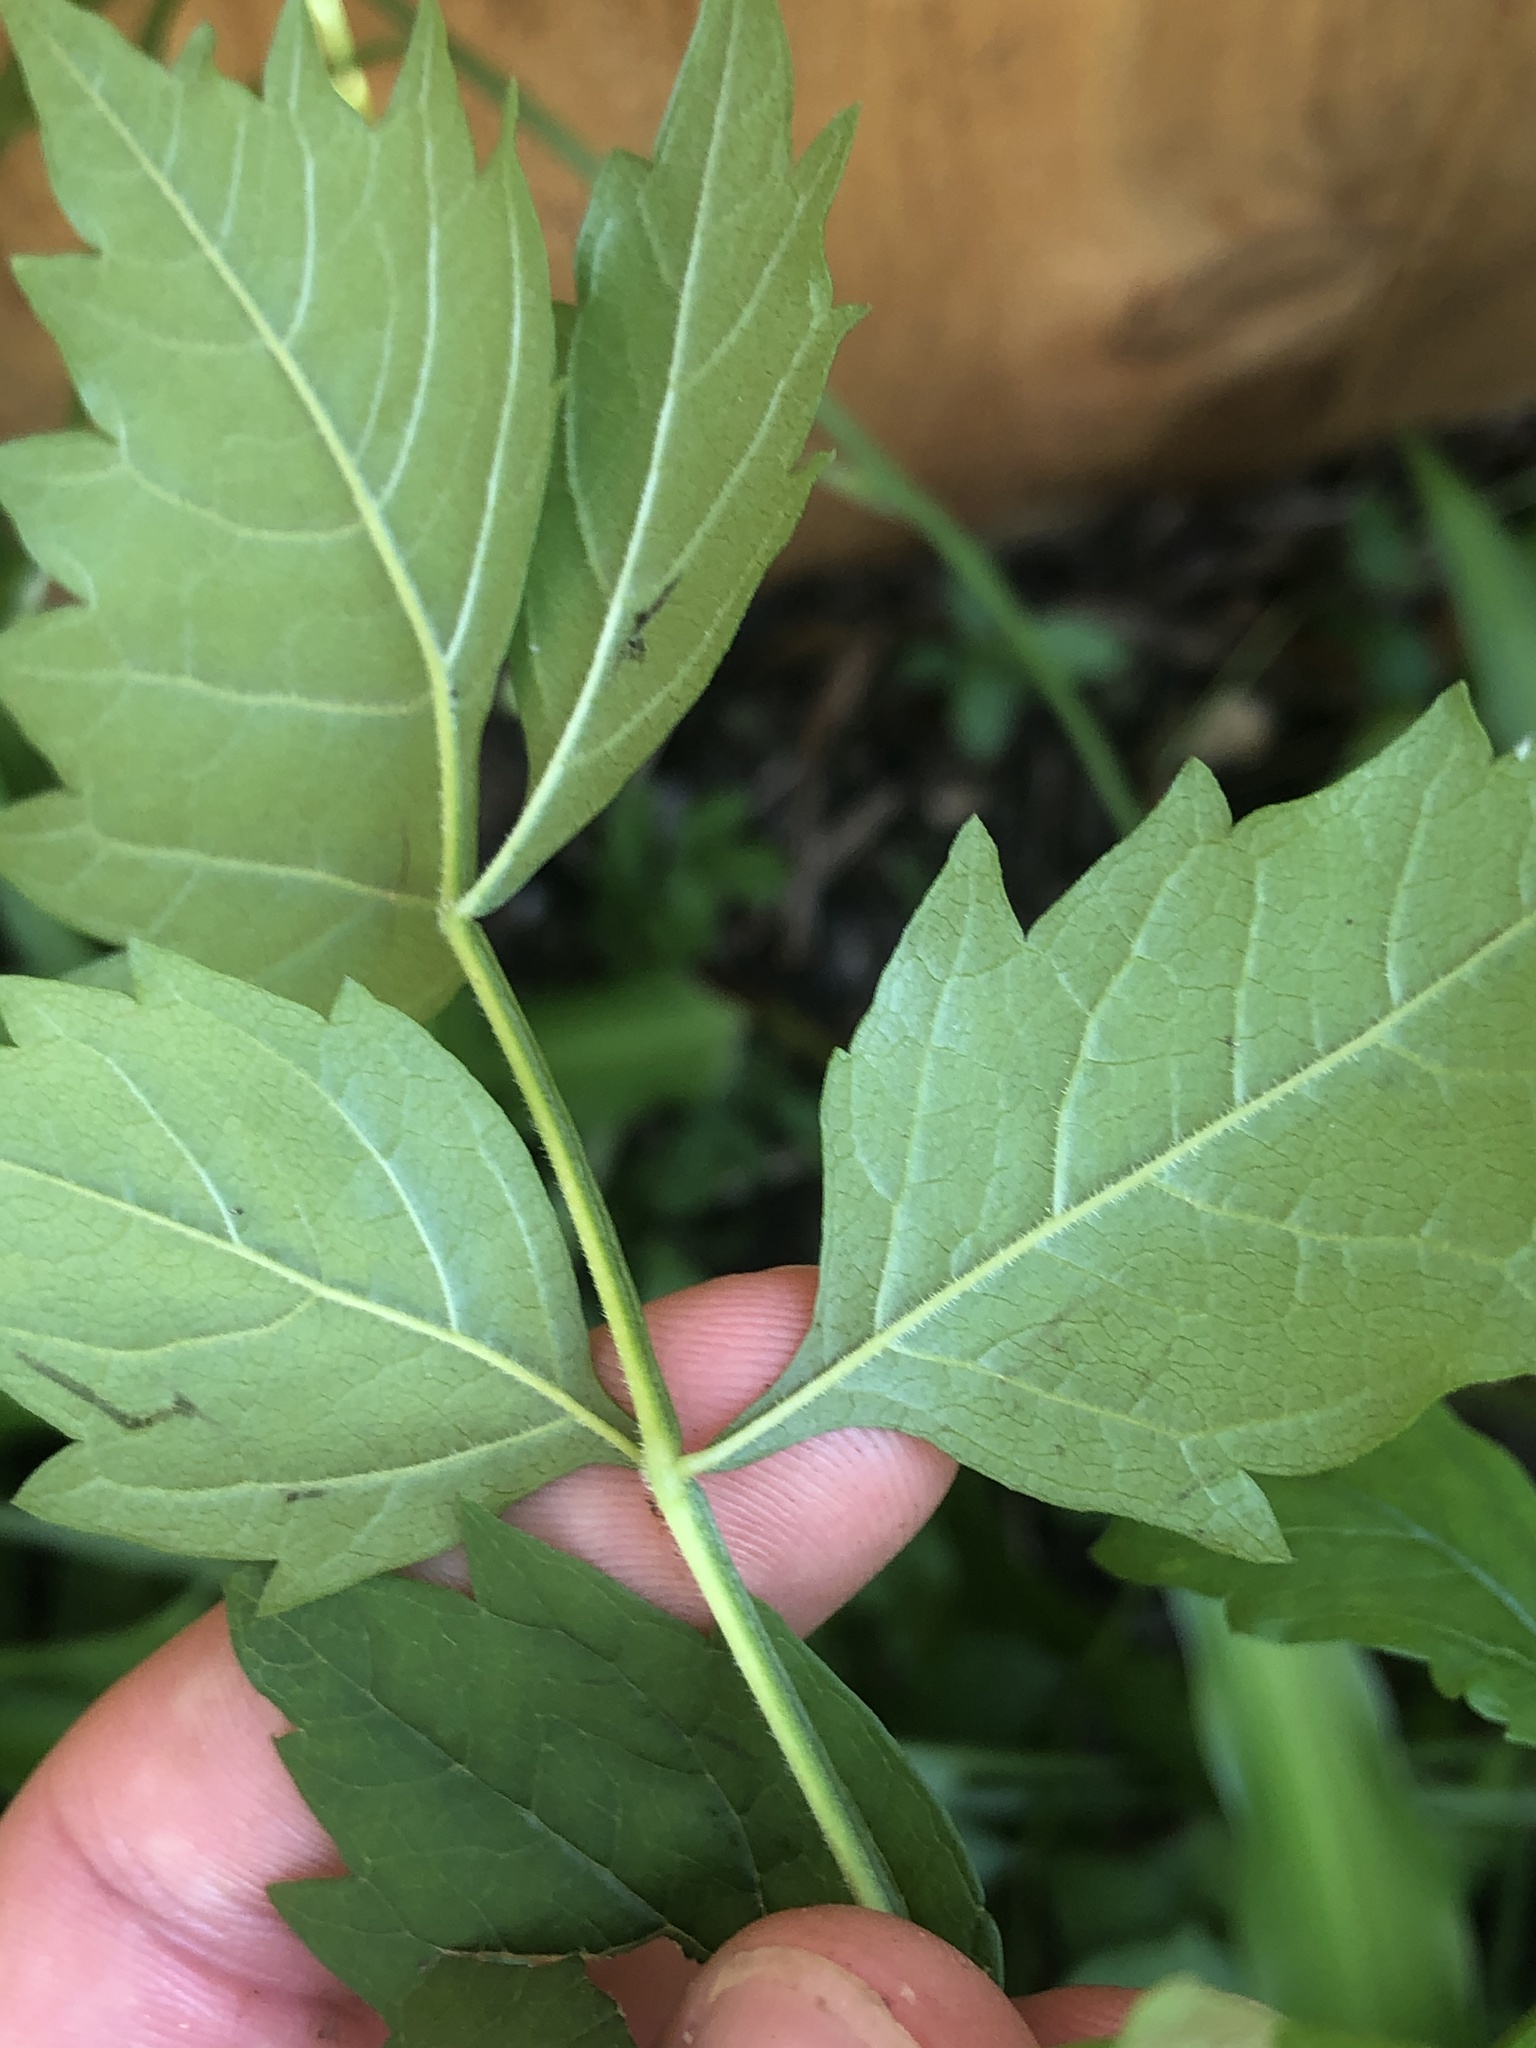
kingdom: Plantae
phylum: Tracheophyta
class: Magnoliopsida
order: Lamiales
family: Bignoniaceae
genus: Campsis
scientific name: Campsis radicans
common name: Trumpet-creeper
